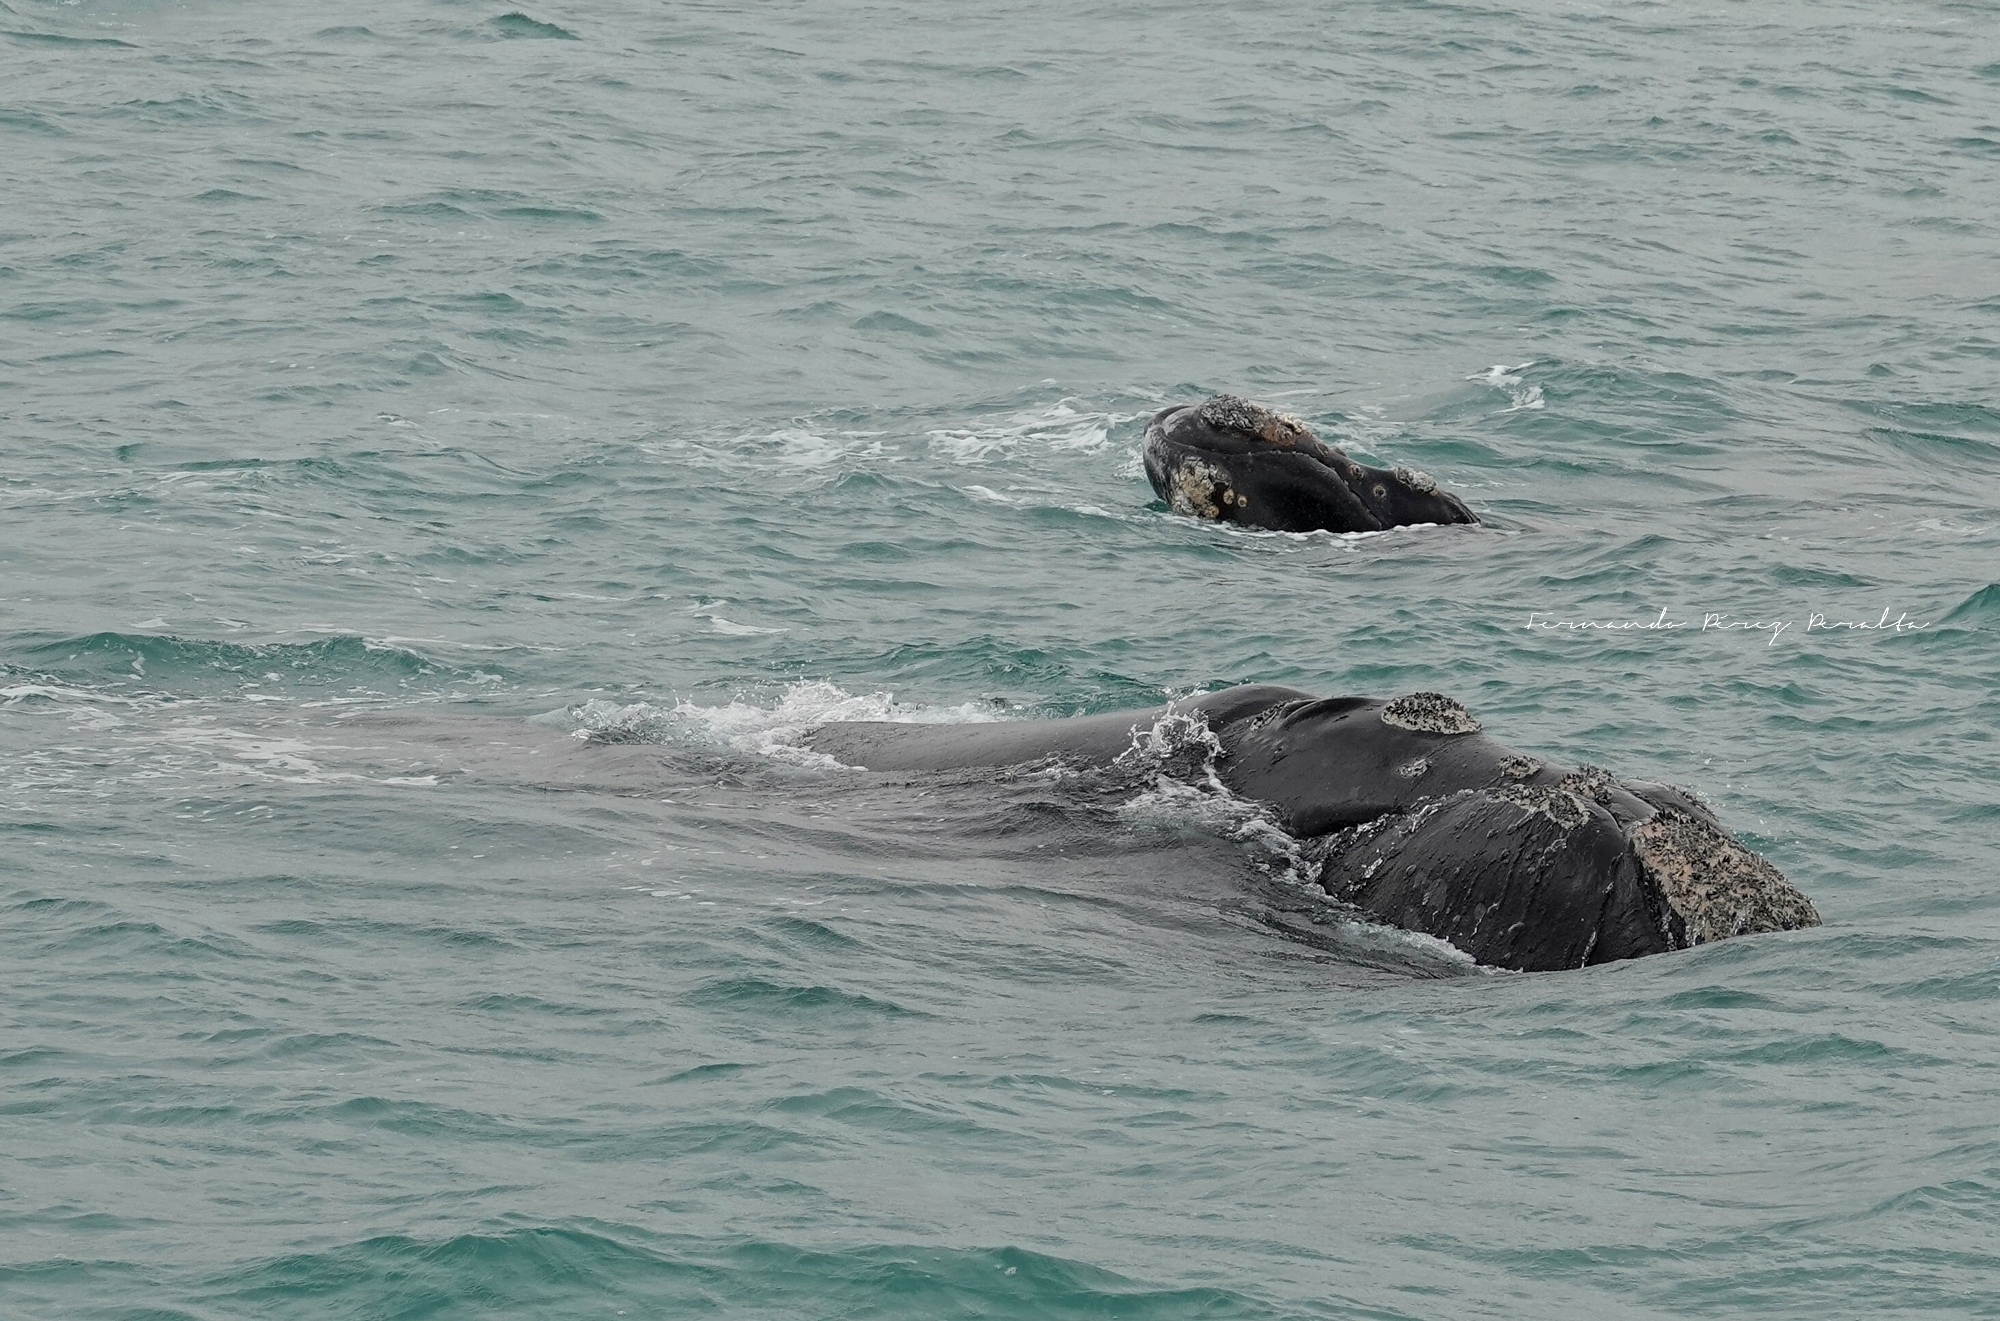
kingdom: Animalia
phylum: Chordata
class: Mammalia
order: Cetacea
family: Balaenidae
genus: Eubalaena
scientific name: Eubalaena australis
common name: Southern right whale
